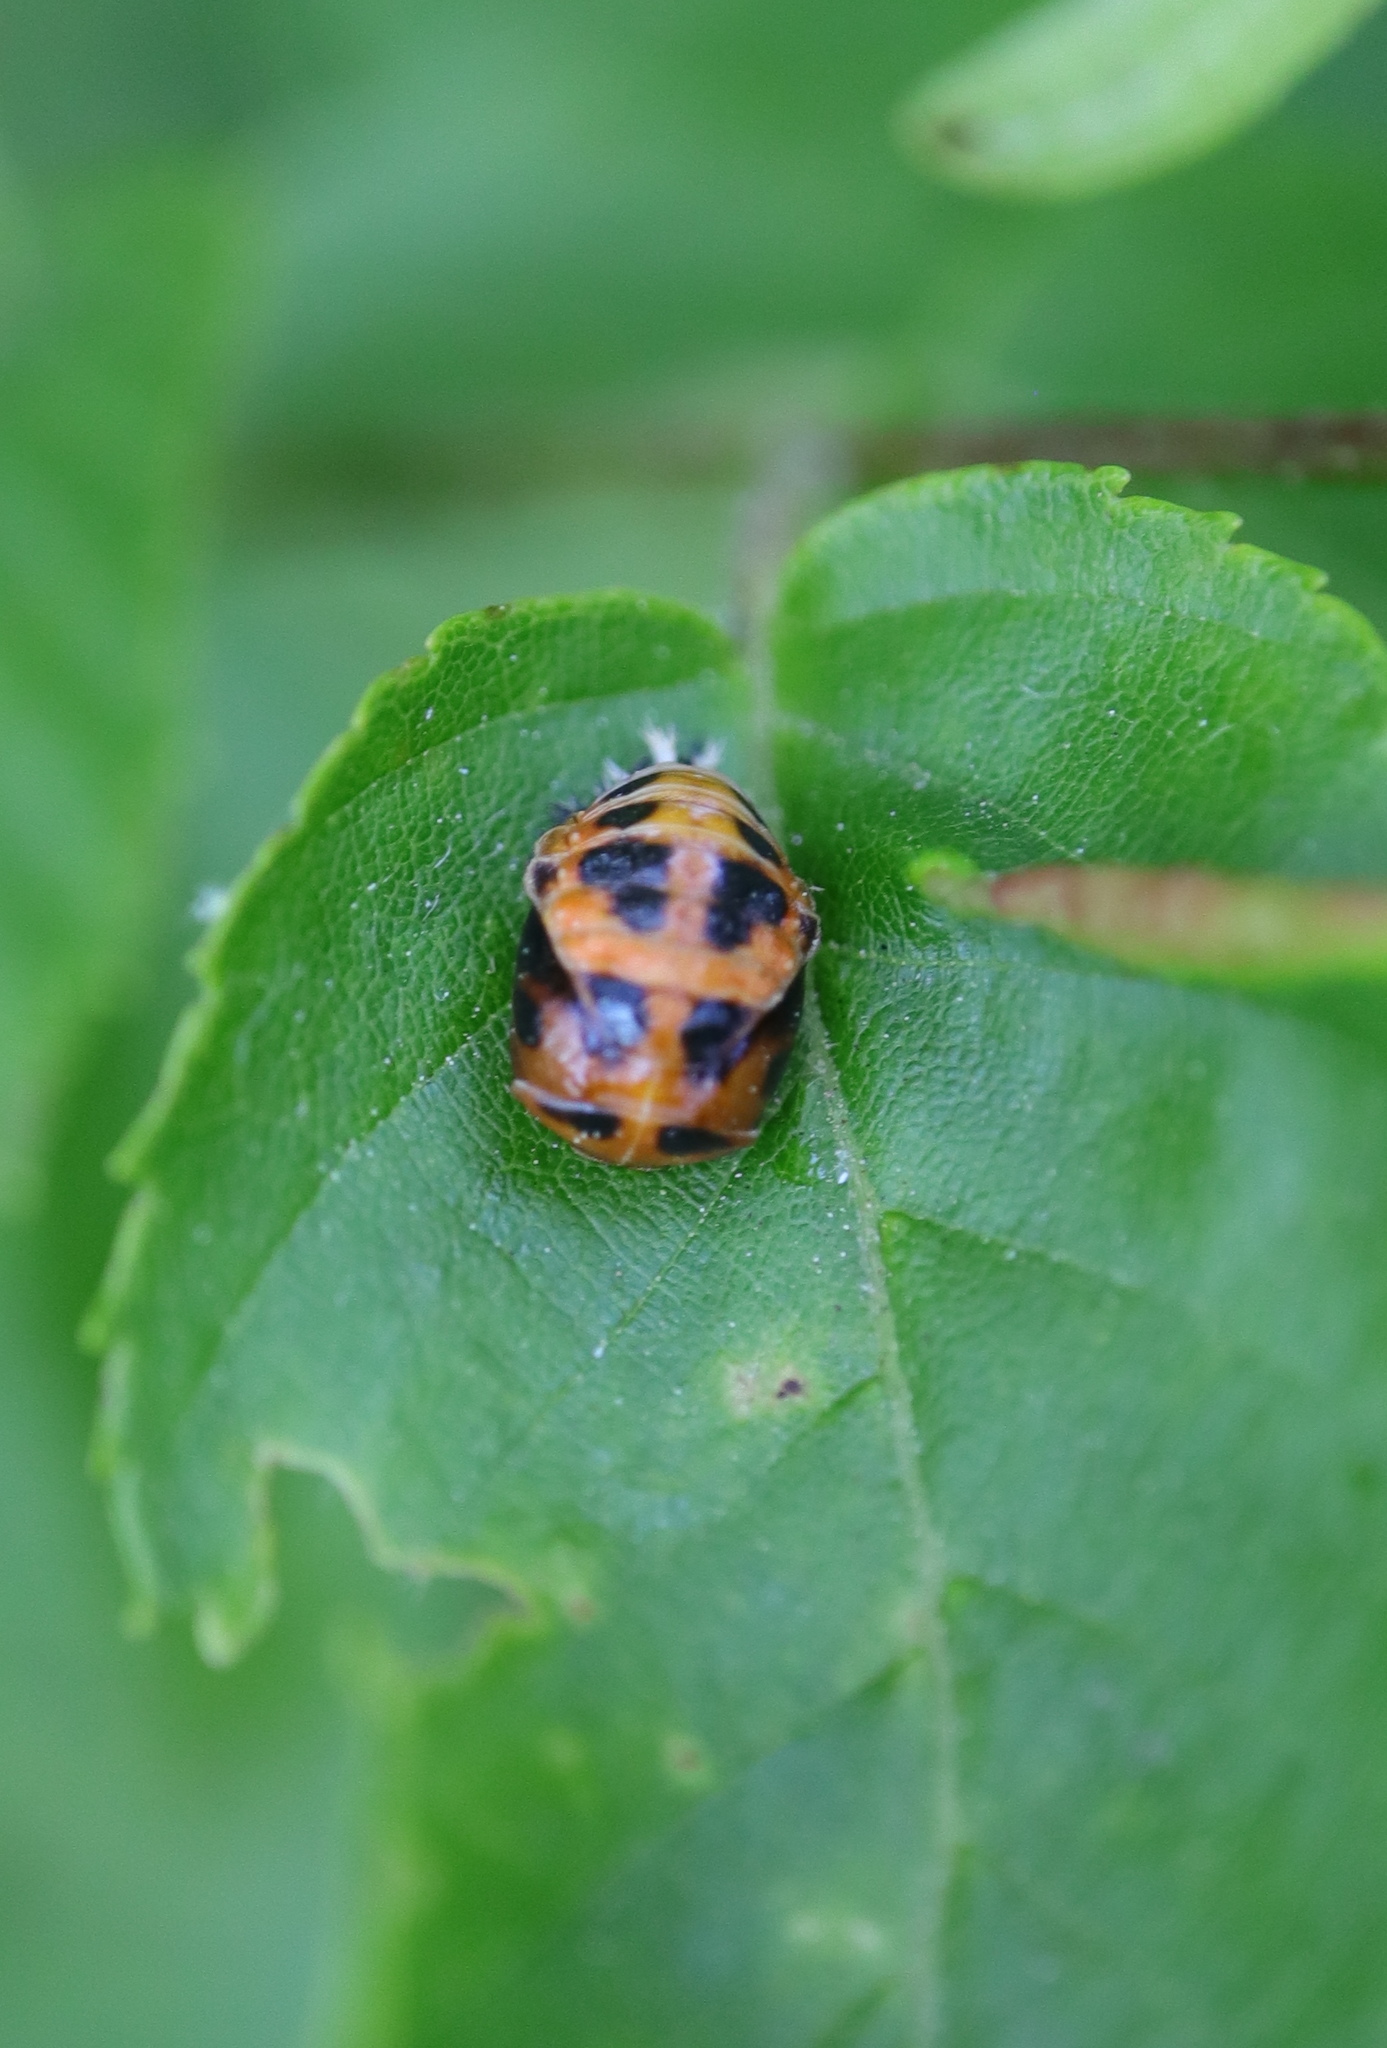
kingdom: Animalia
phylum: Arthropoda
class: Insecta
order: Coleoptera
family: Coccinellidae
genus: Harmonia
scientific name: Harmonia axyridis
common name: Harlequin ladybird
